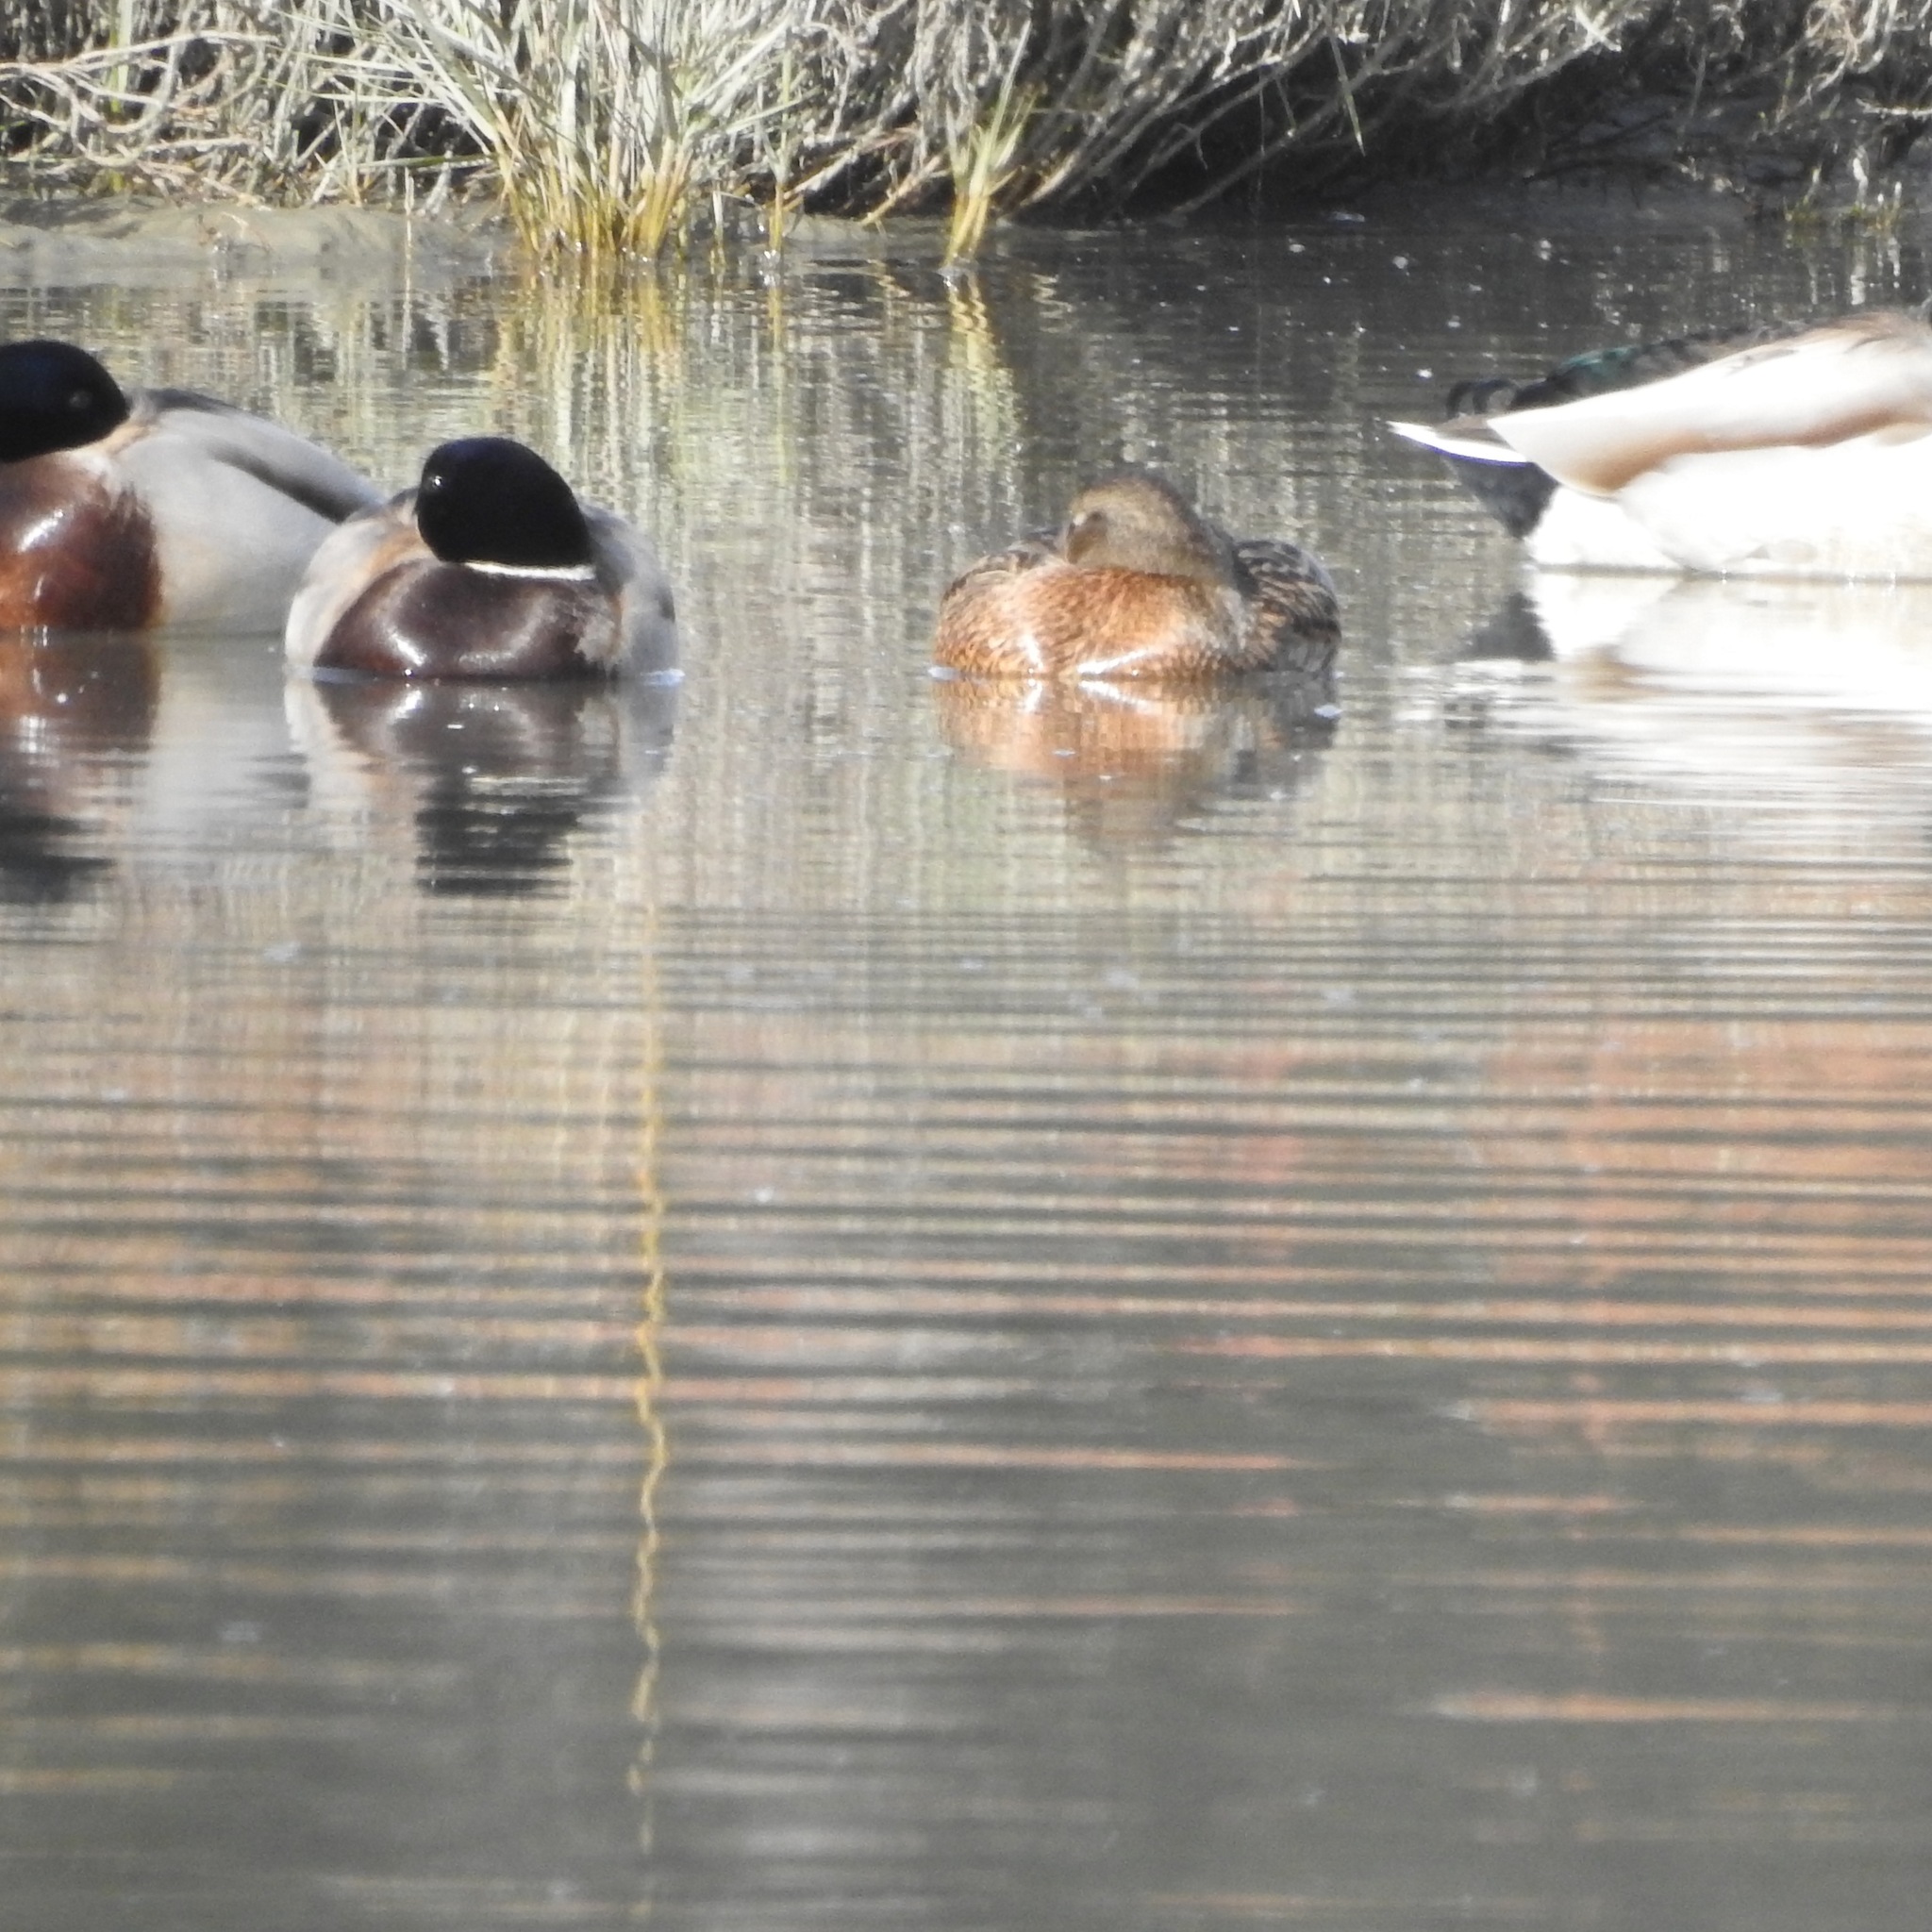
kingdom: Animalia
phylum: Chordata
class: Aves
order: Anseriformes
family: Anatidae
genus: Anas
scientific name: Anas platyrhynchos
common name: Mallard
